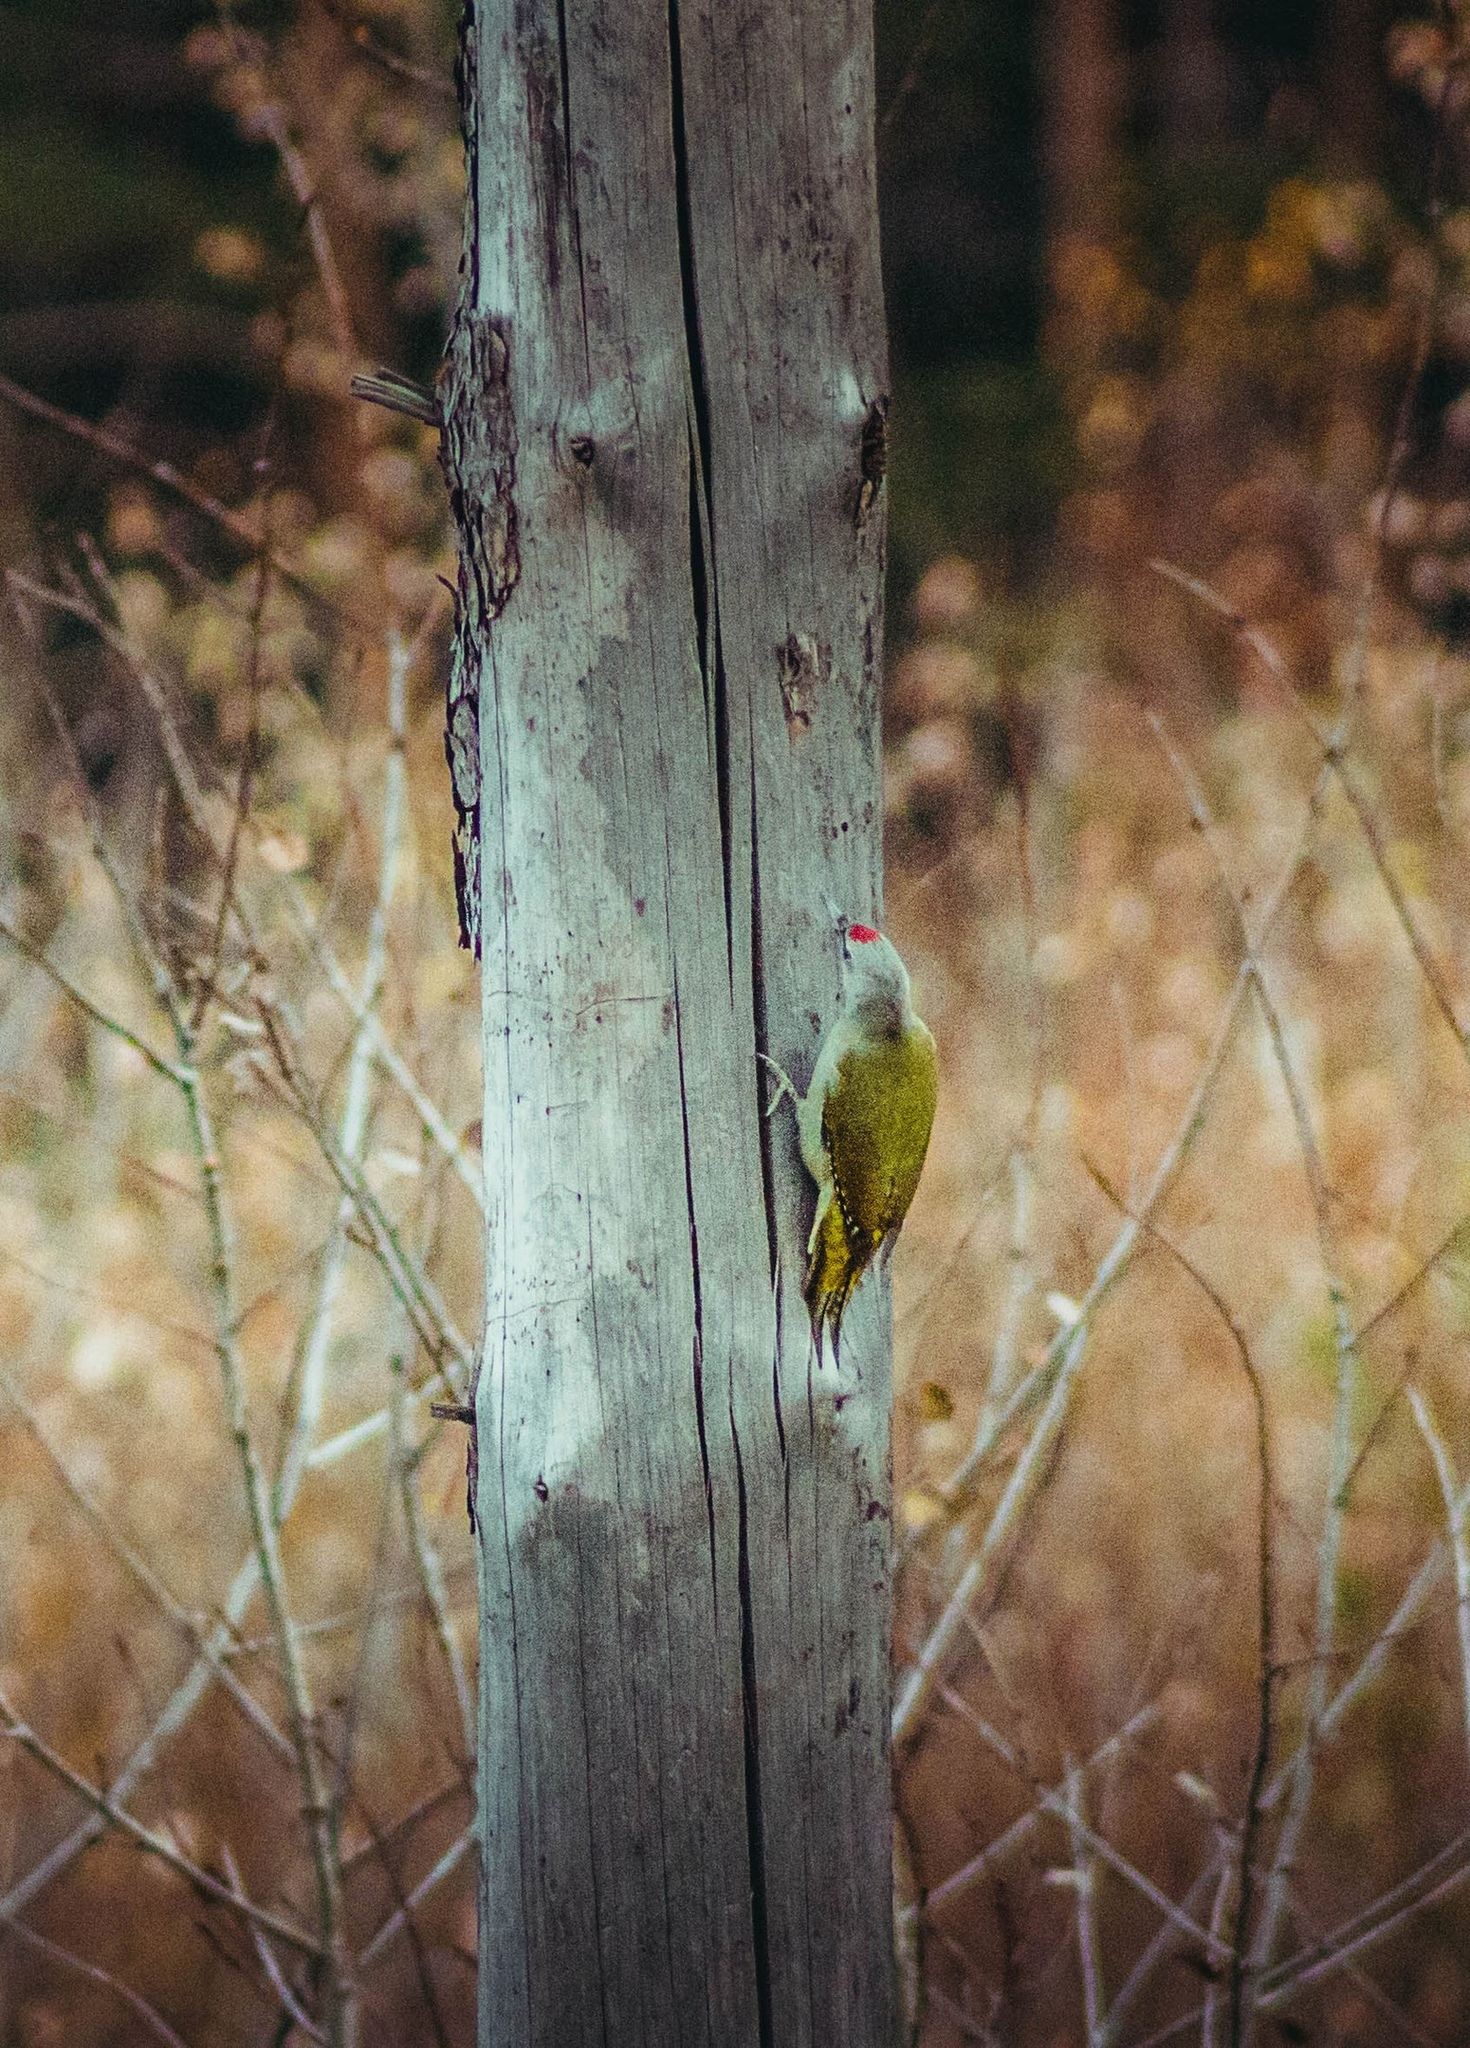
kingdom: Animalia
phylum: Chordata
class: Aves
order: Piciformes
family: Picidae
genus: Picus
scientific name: Picus canus
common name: Grey-headed woodpecker
